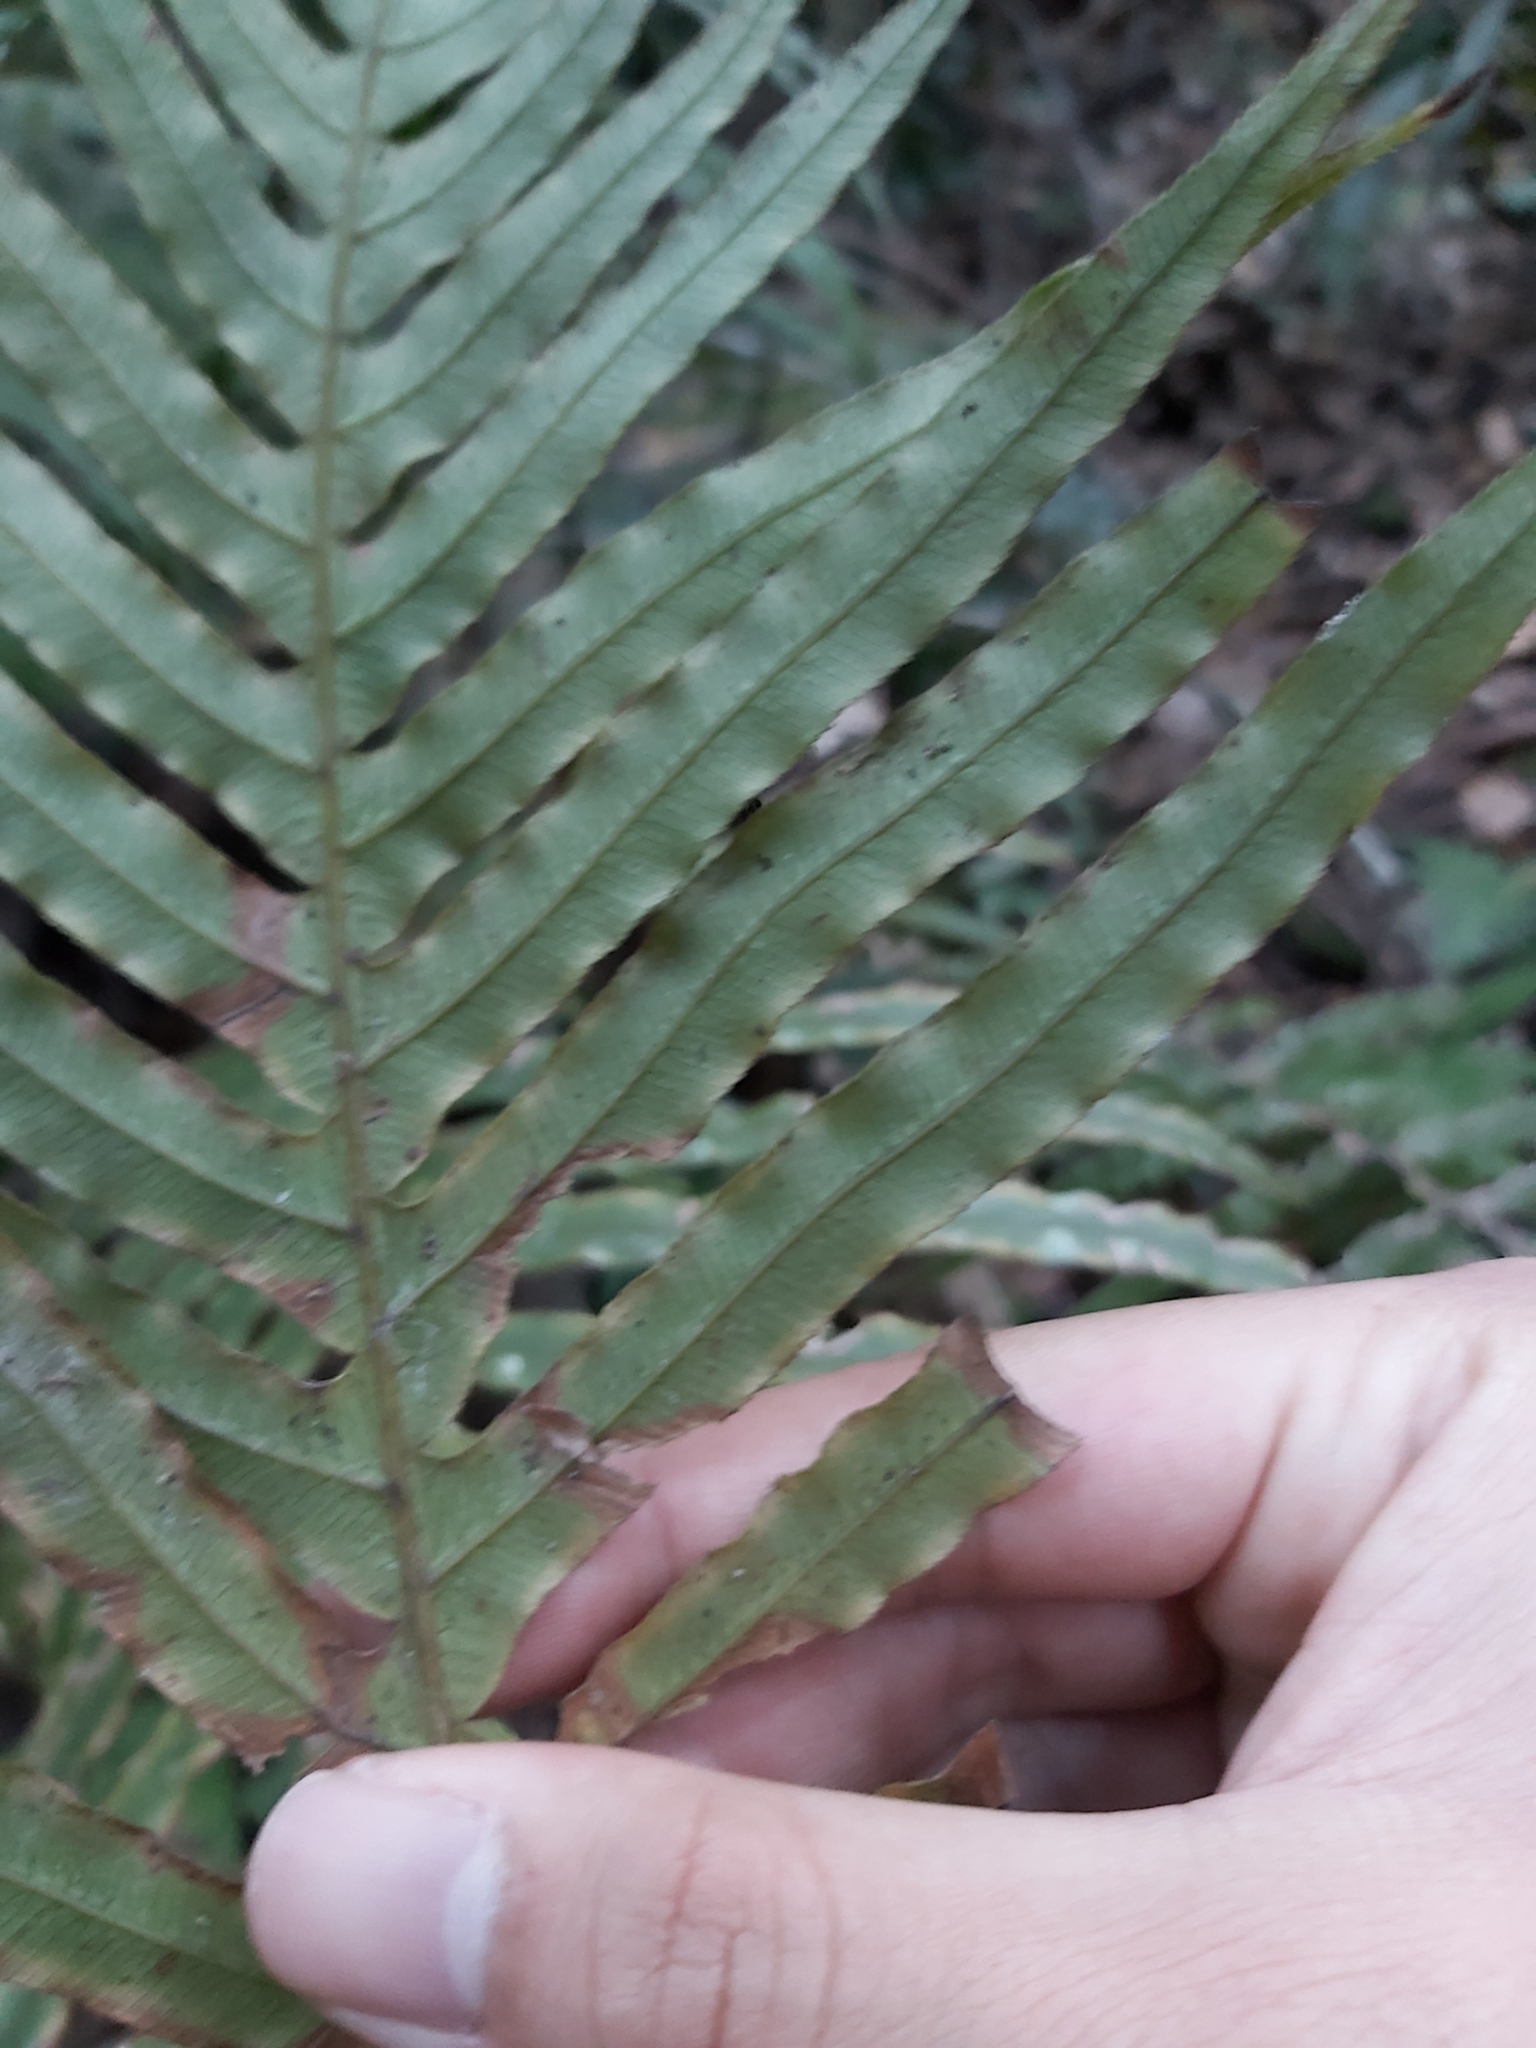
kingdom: Plantae
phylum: Tracheophyta
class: Polypodiopsida
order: Polypodiales
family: Blechnaceae
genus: Oceaniopteris
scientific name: Oceaniopteris cartilaginea
